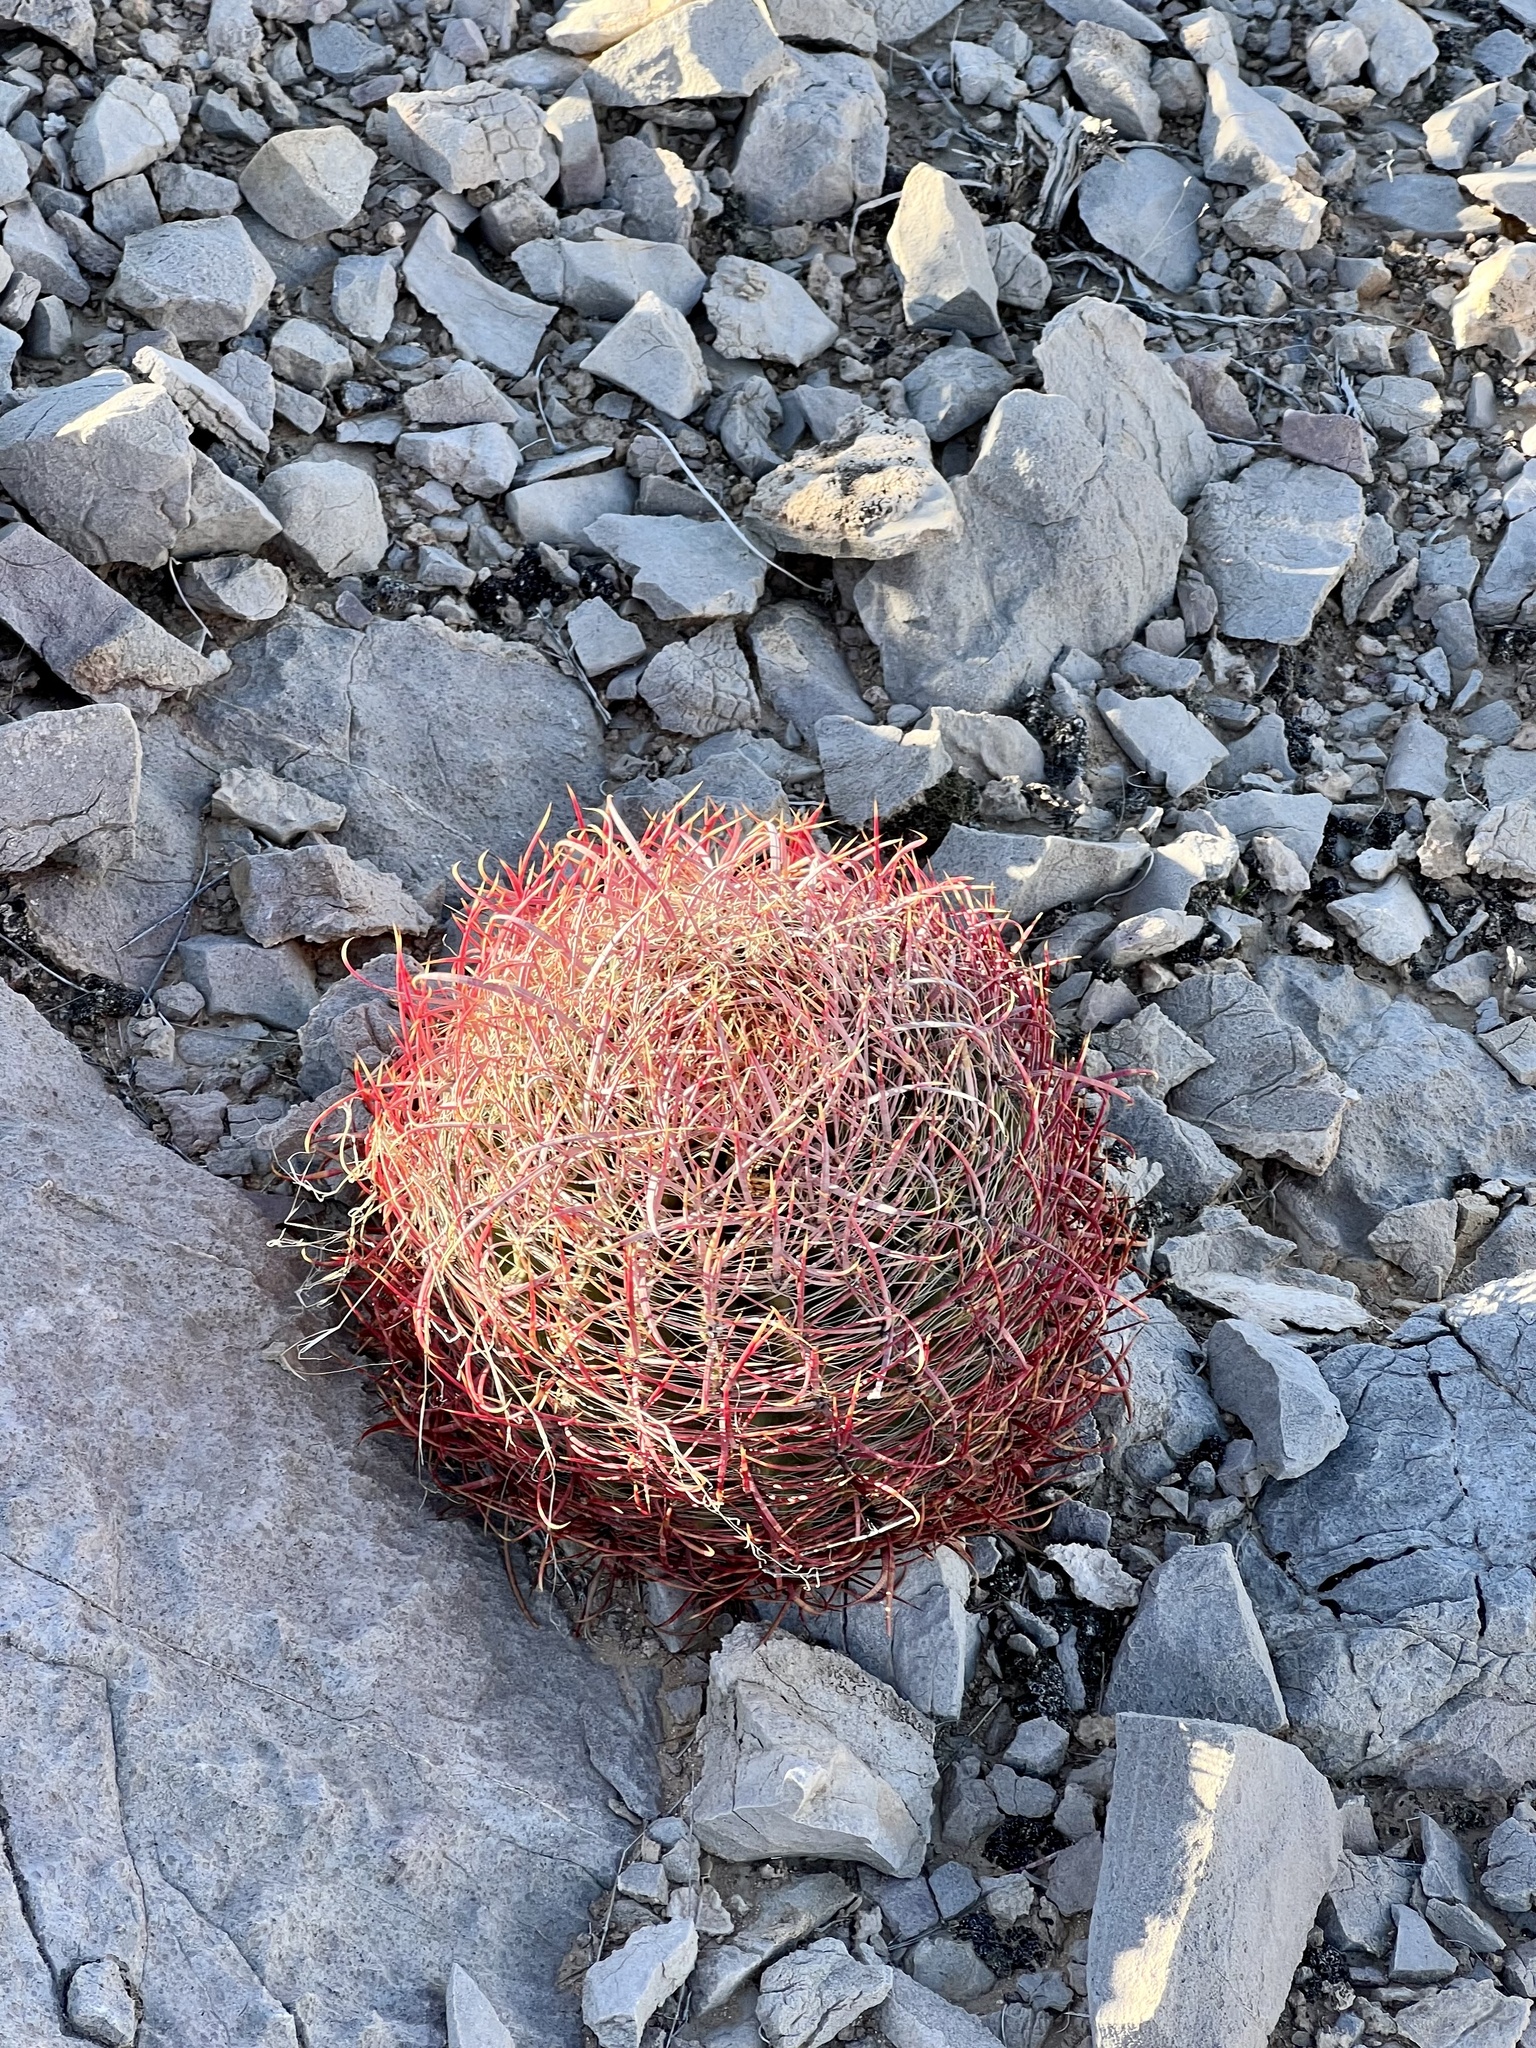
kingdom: Plantae
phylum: Tracheophyta
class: Magnoliopsida
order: Caryophyllales
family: Cactaceae
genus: Ferocactus
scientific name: Ferocactus cylindraceus
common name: California barrel cactus
